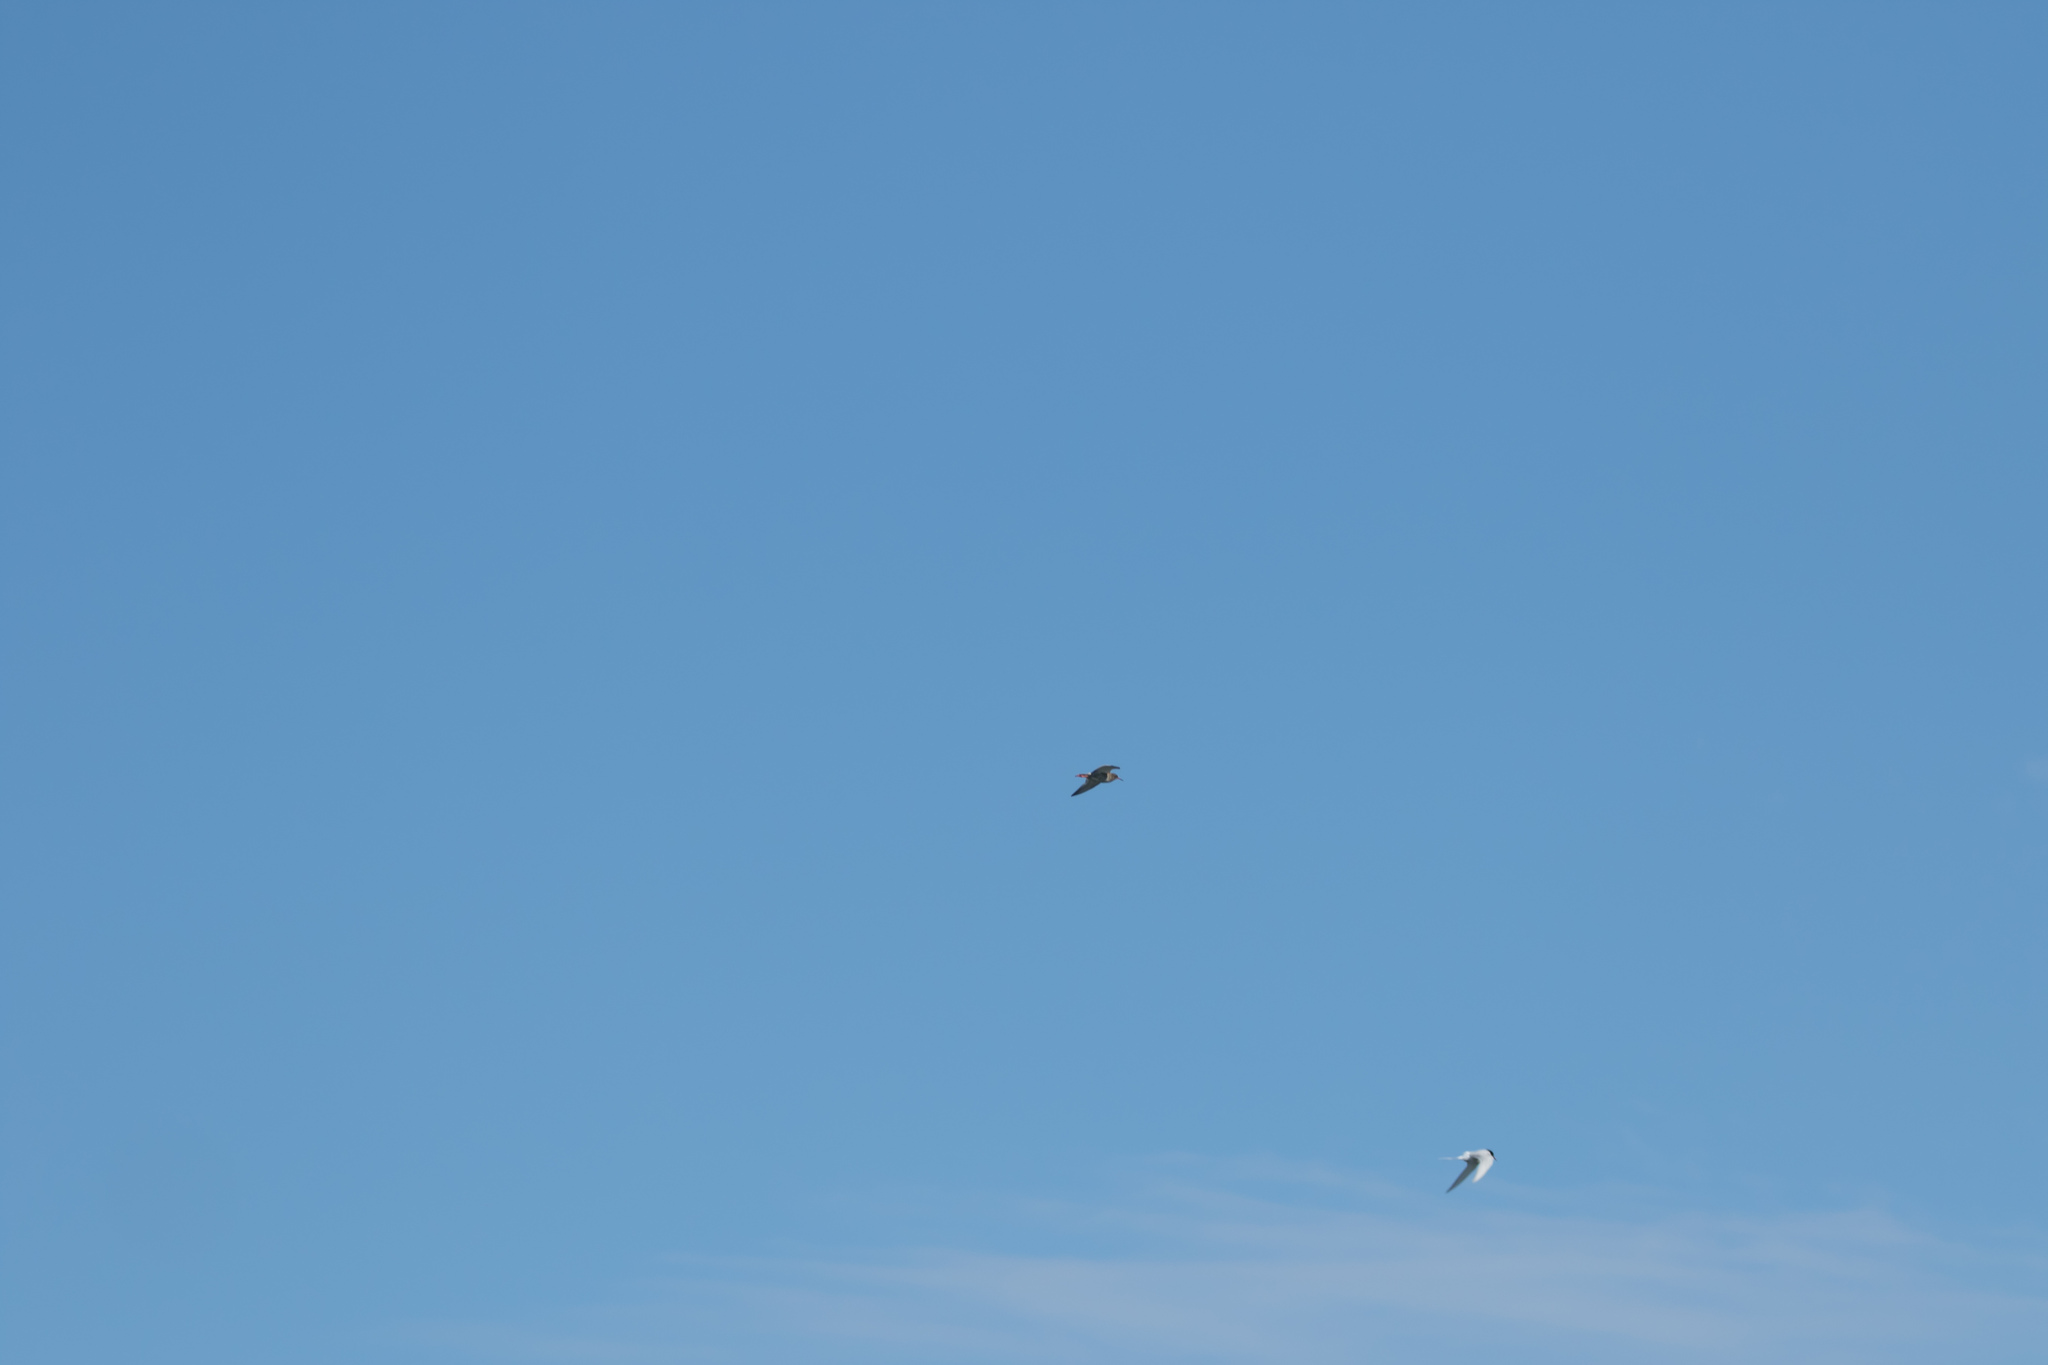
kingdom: Animalia
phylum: Chordata
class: Aves
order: Charadriiformes
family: Scolopacidae
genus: Tringa
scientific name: Tringa totanus
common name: Common redshank
